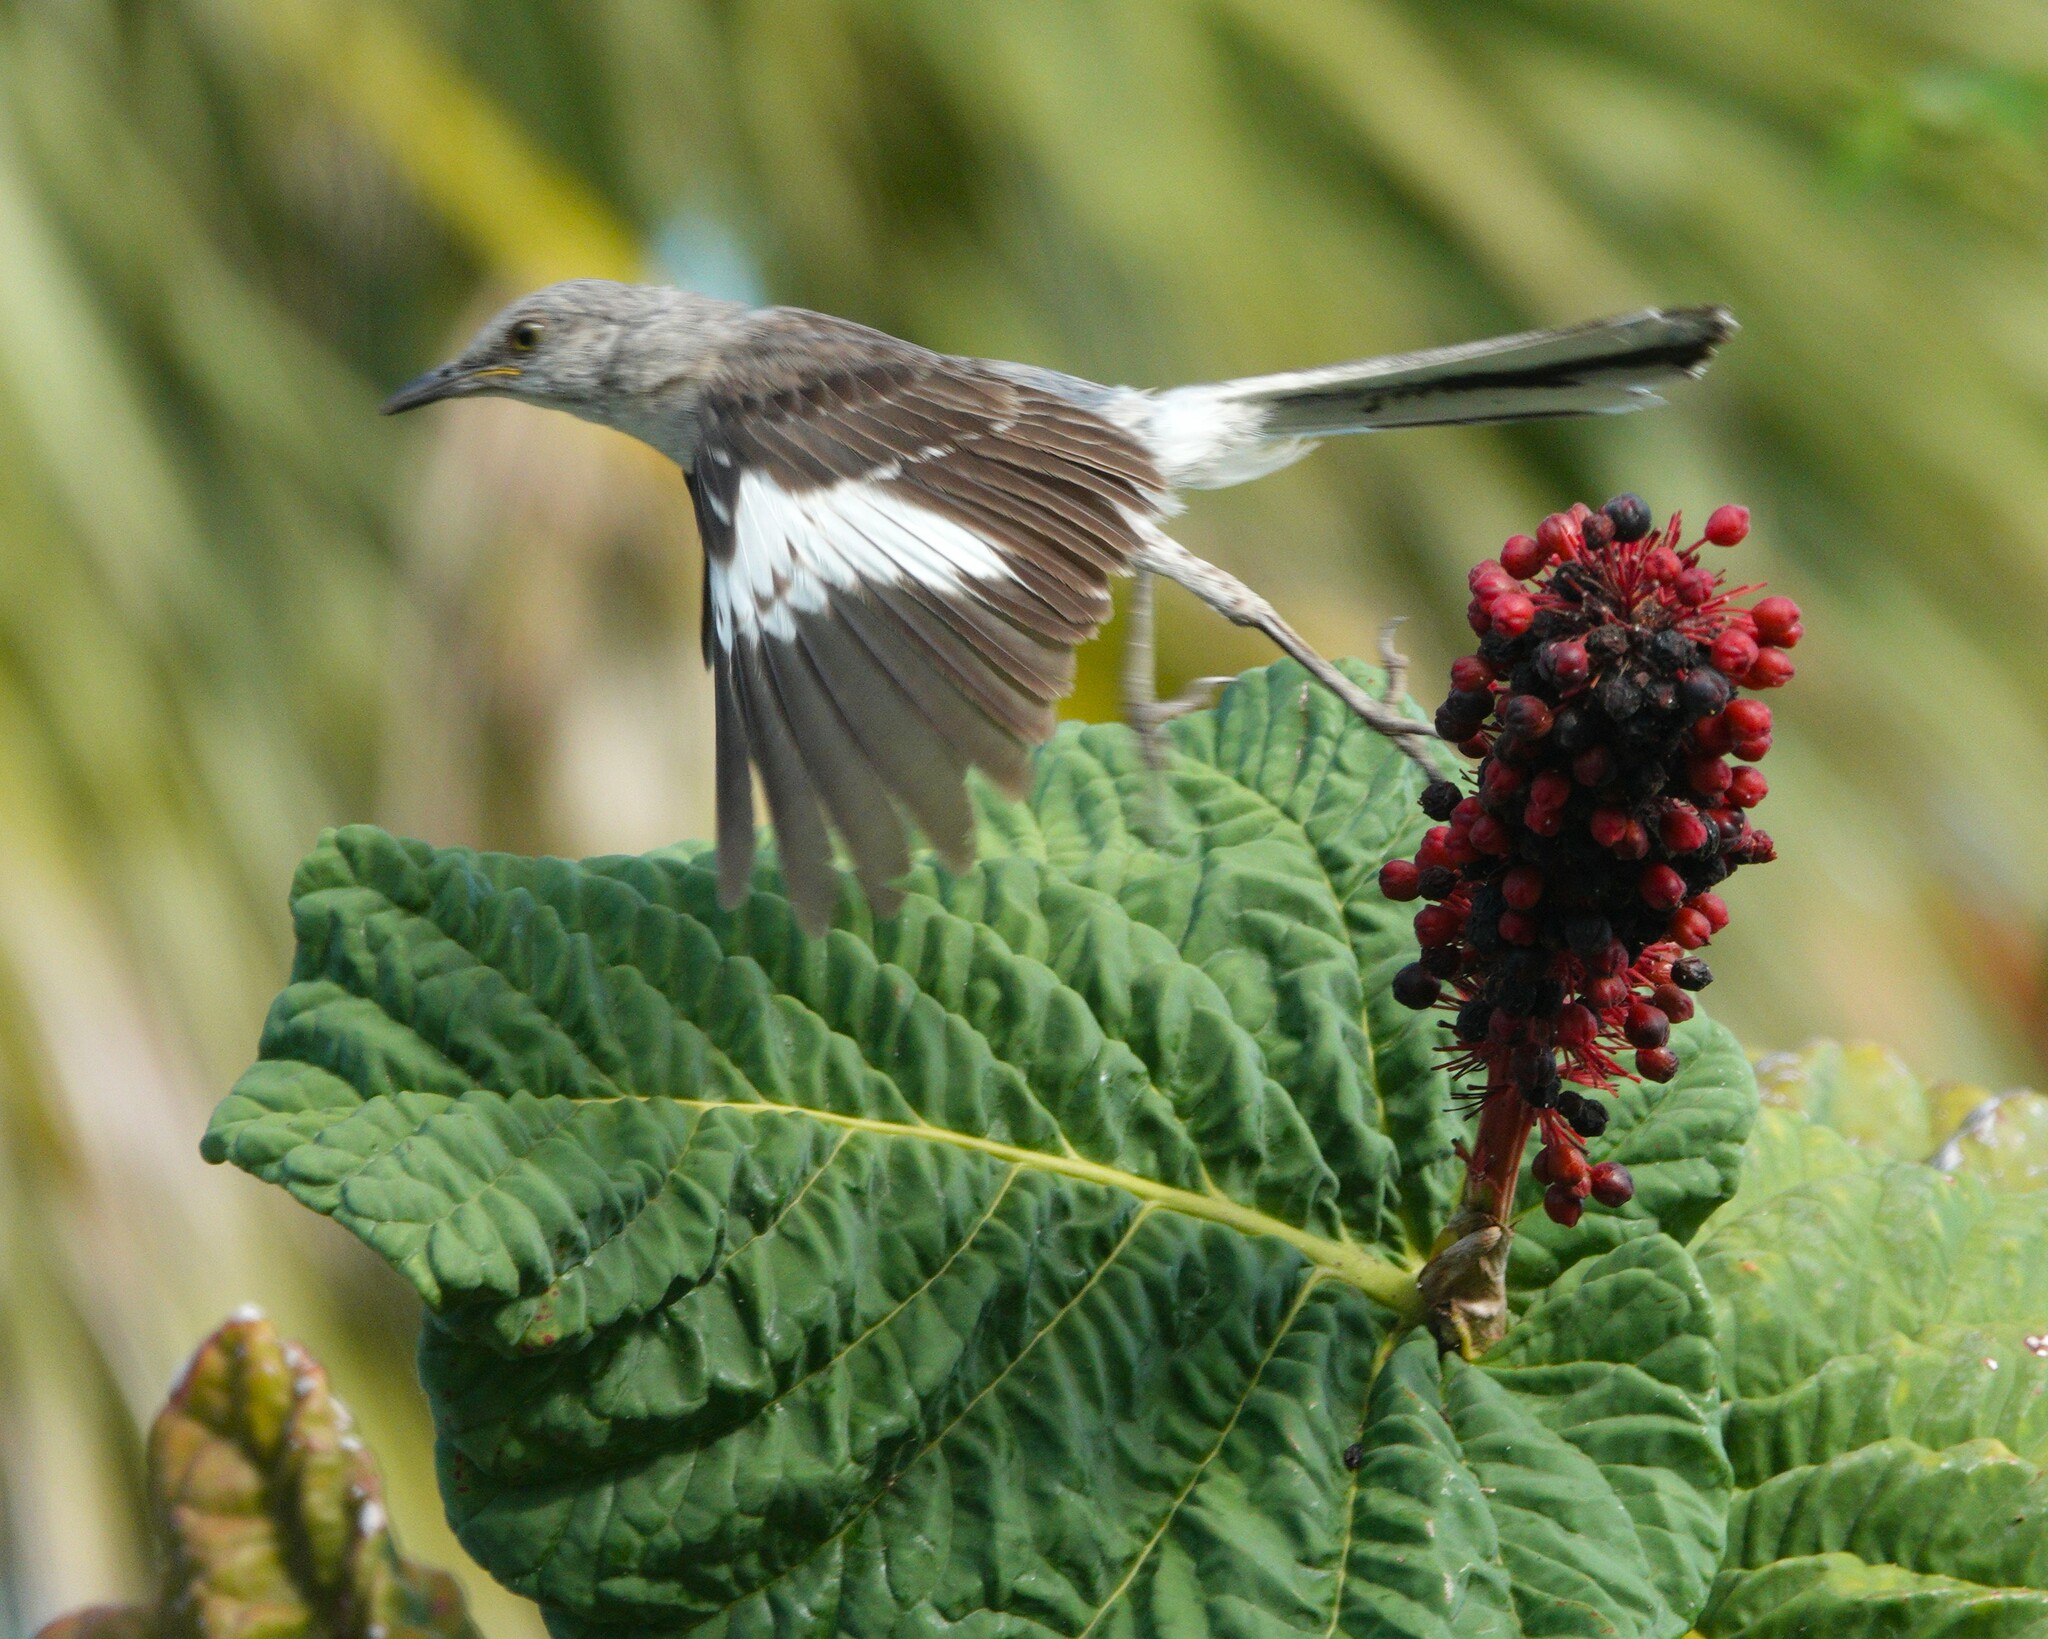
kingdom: Animalia
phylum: Chordata
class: Aves
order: Passeriformes
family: Mimidae
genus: Mimus
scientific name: Mimus polyglottos
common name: Northern mockingbird
